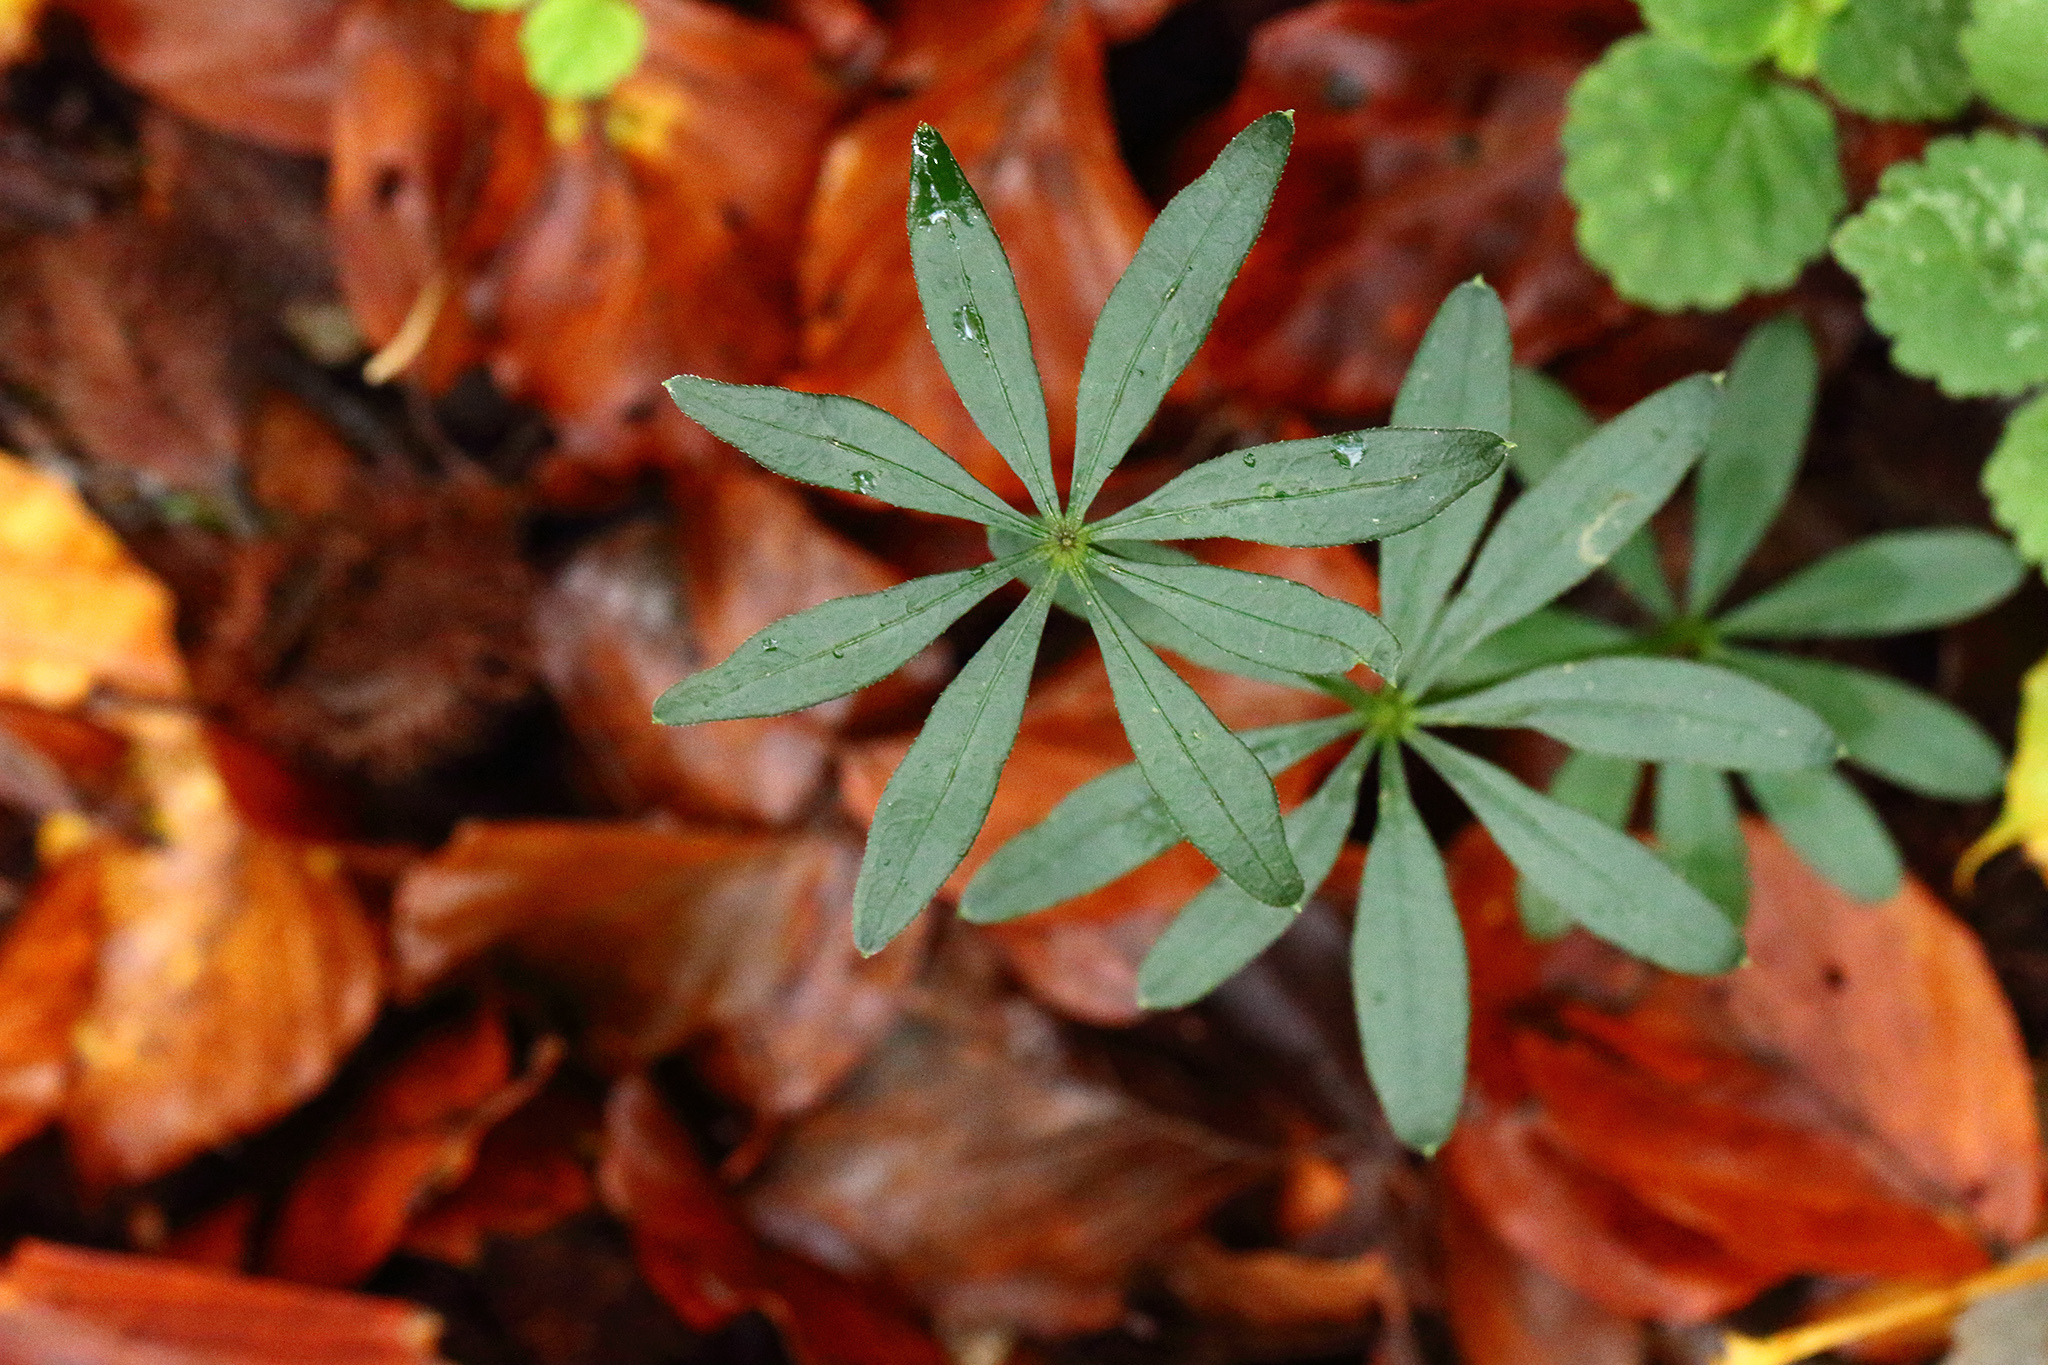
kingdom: Plantae
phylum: Tracheophyta
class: Magnoliopsida
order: Gentianales
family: Rubiaceae
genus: Galium
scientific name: Galium odoratum
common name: Sweet woodruff
